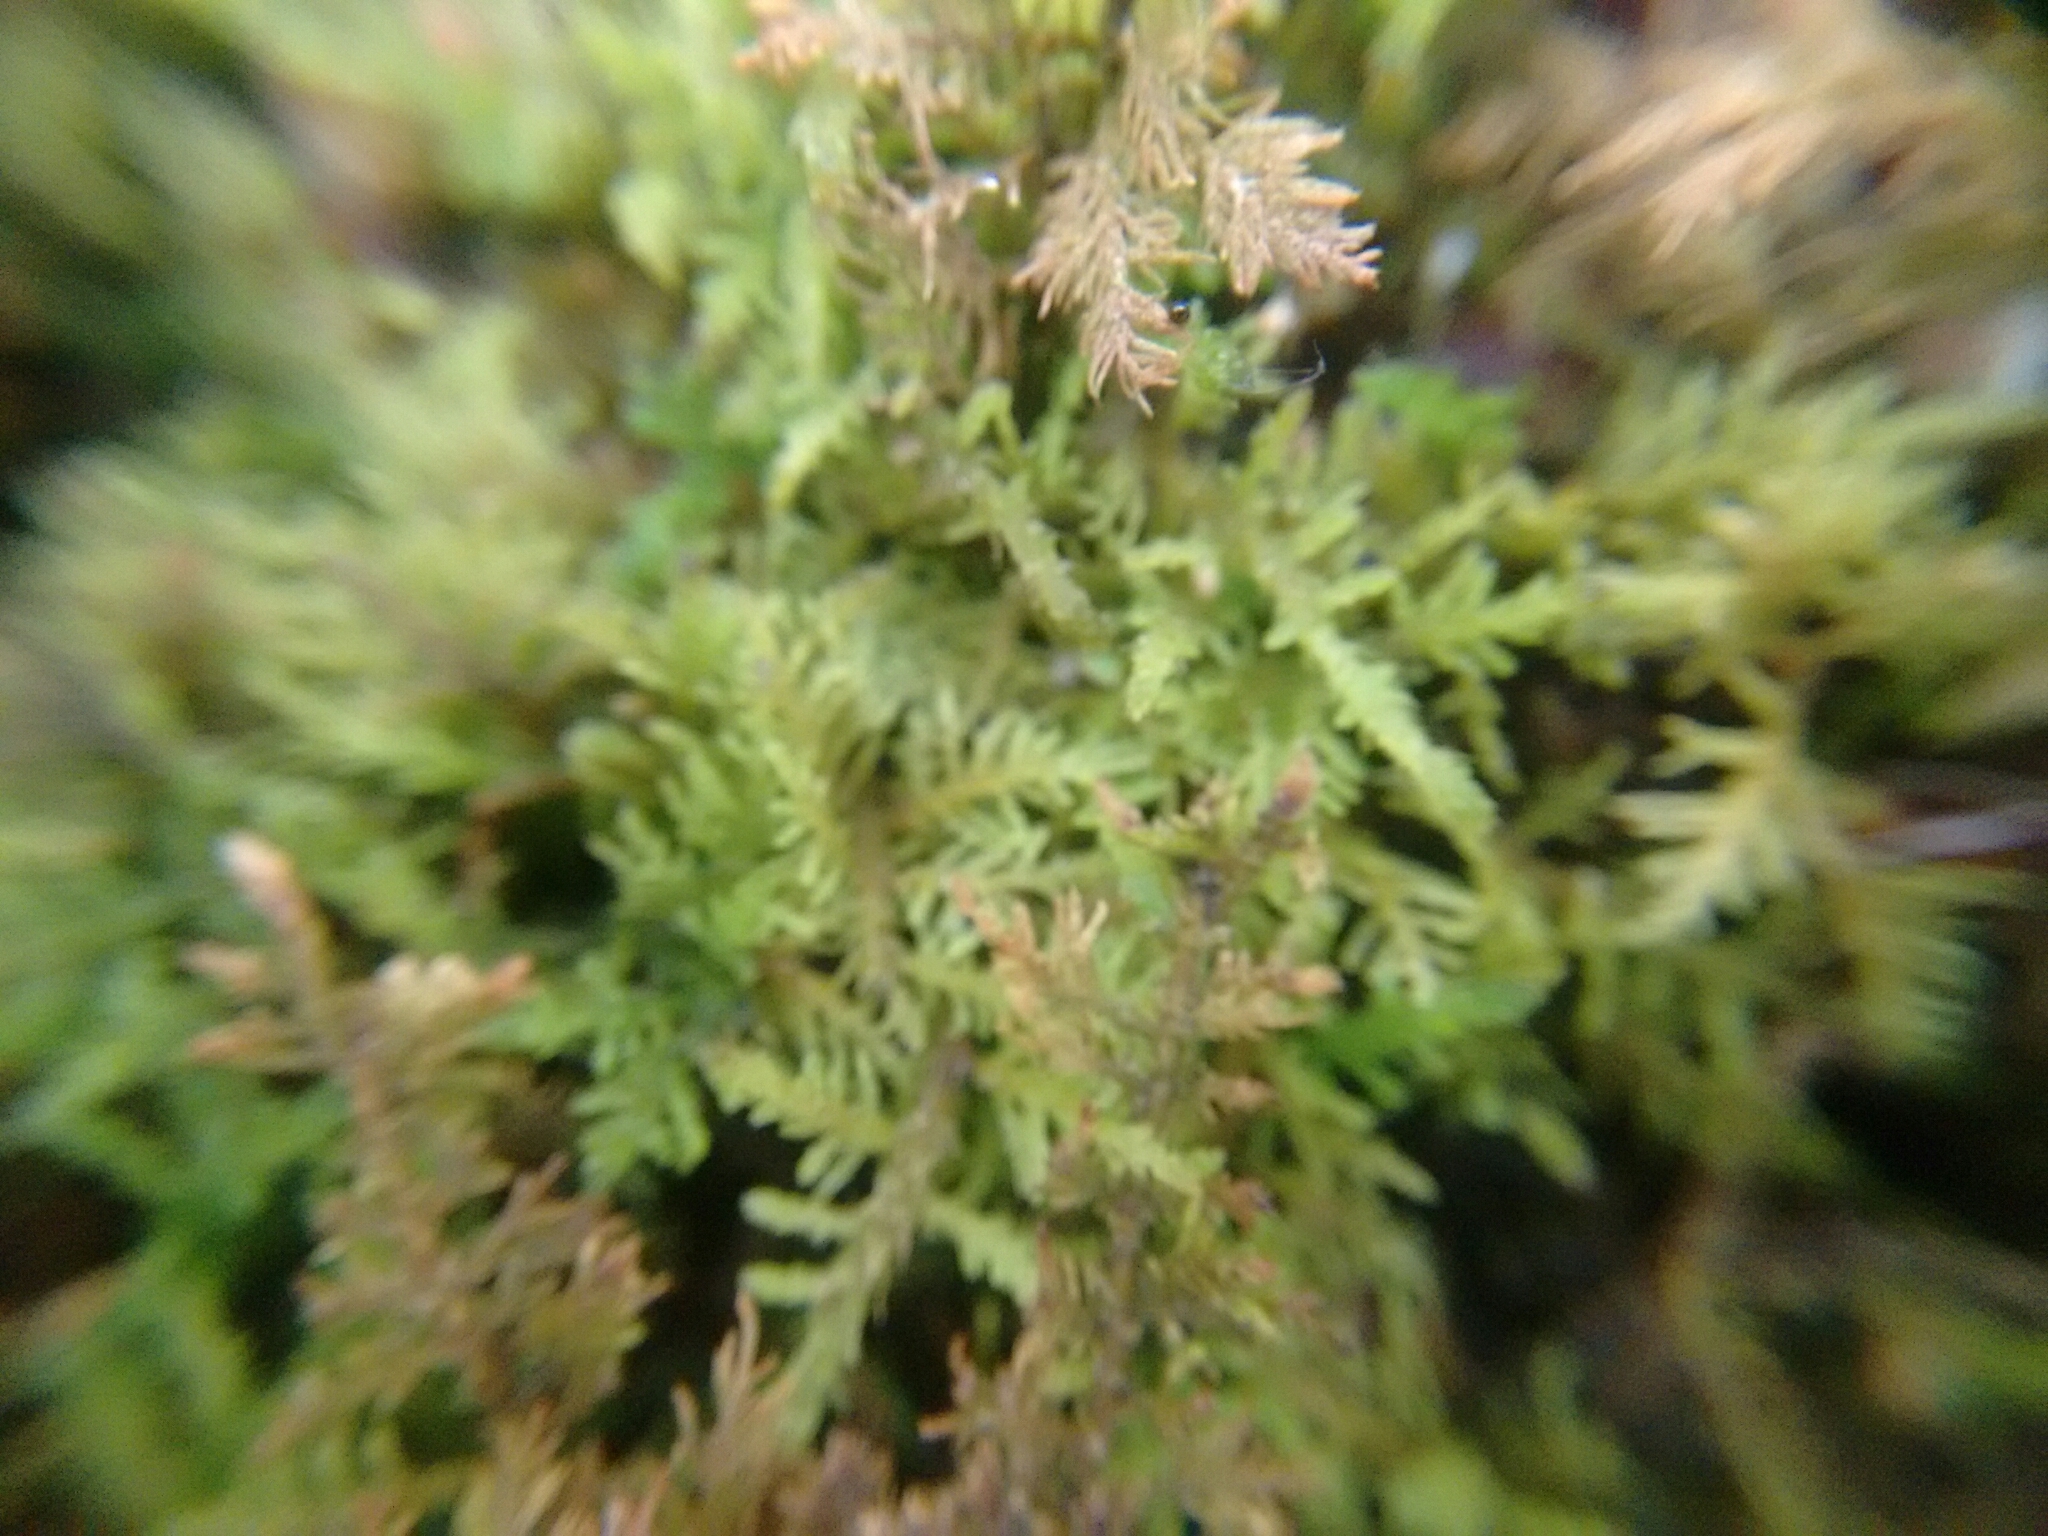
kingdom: Plantae
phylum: Bryophyta
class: Bryopsida
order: Hypnales
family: Thuidiaceae
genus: Thuidium
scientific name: Thuidium delicatulum
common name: Delicate fern moss
